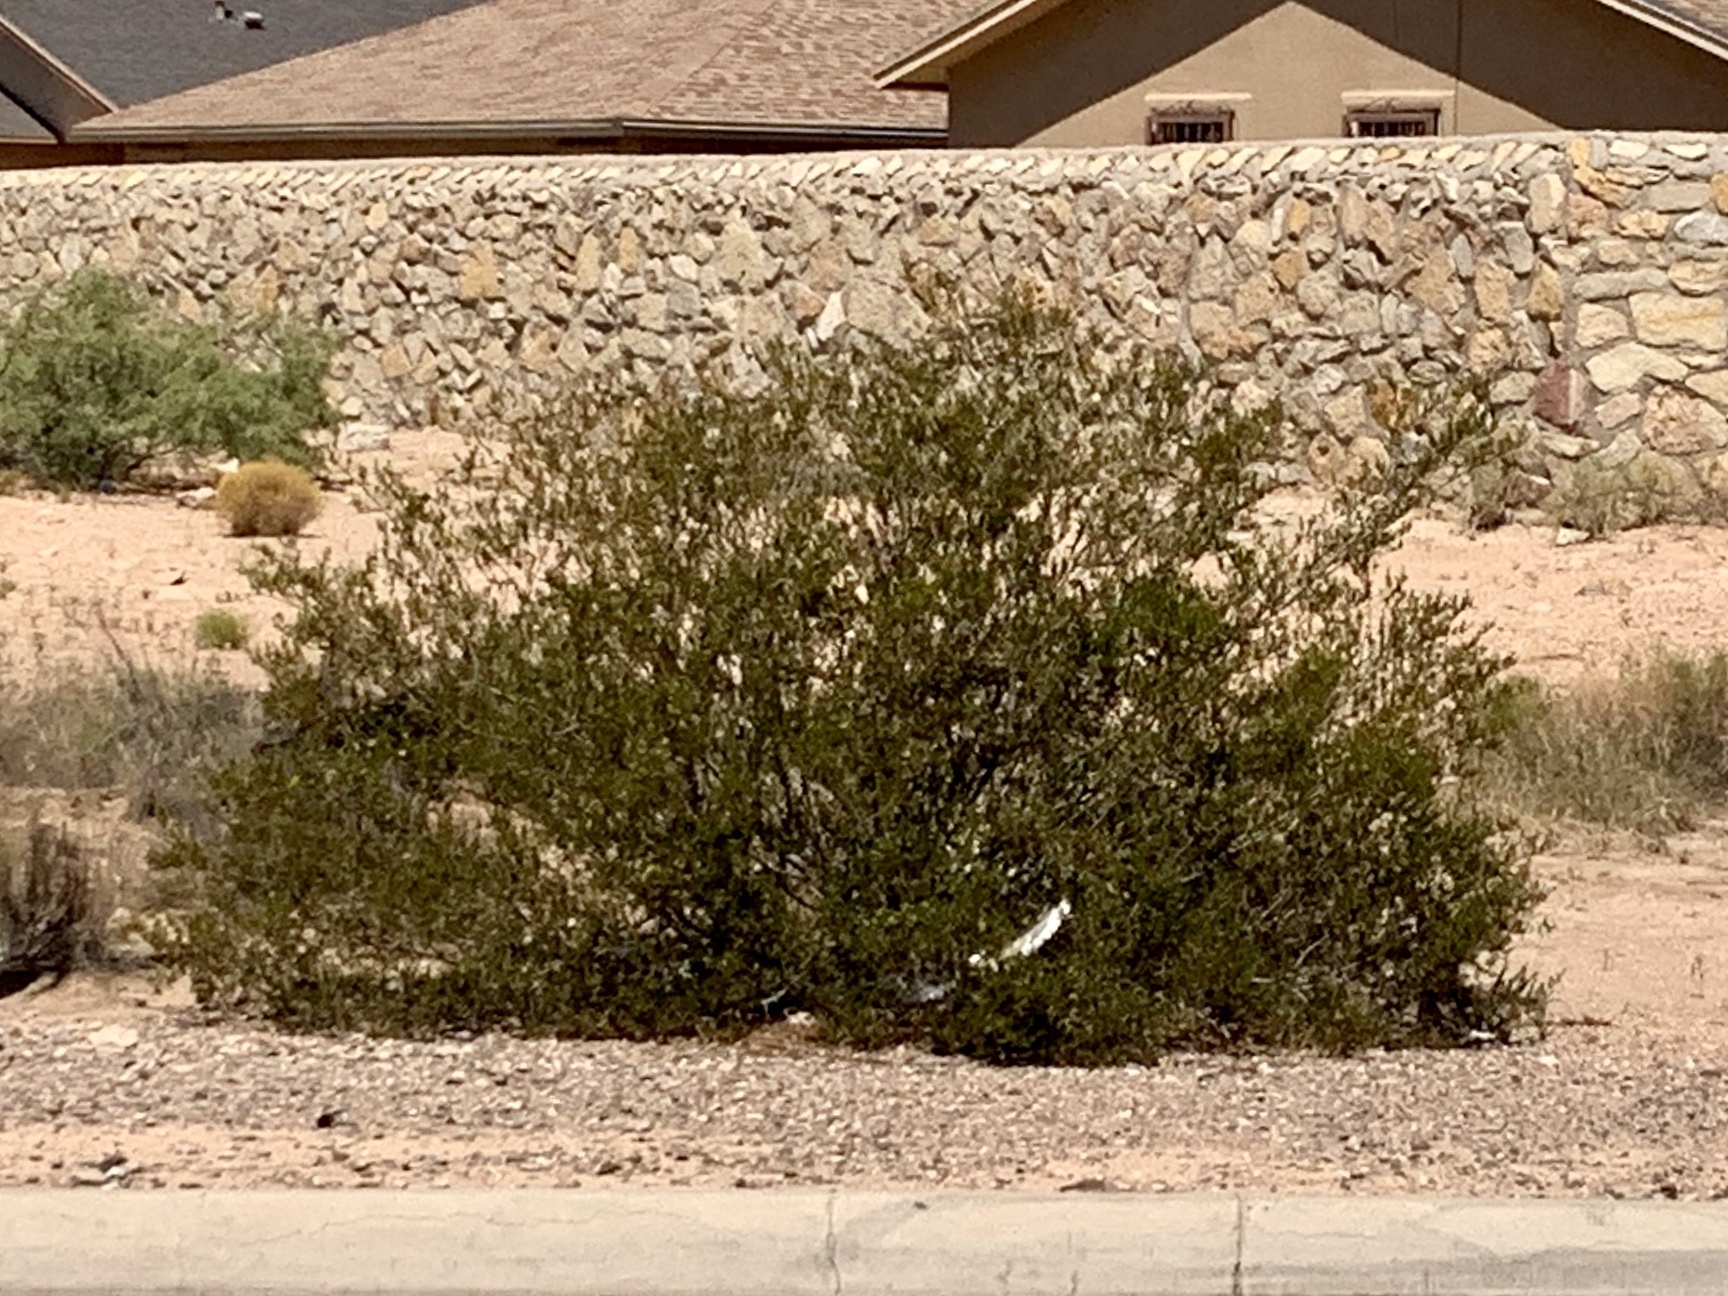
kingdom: Plantae
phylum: Tracheophyta
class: Magnoliopsida
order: Zygophyllales
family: Zygophyllaceae
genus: Larrea
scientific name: Larrea tridentata
